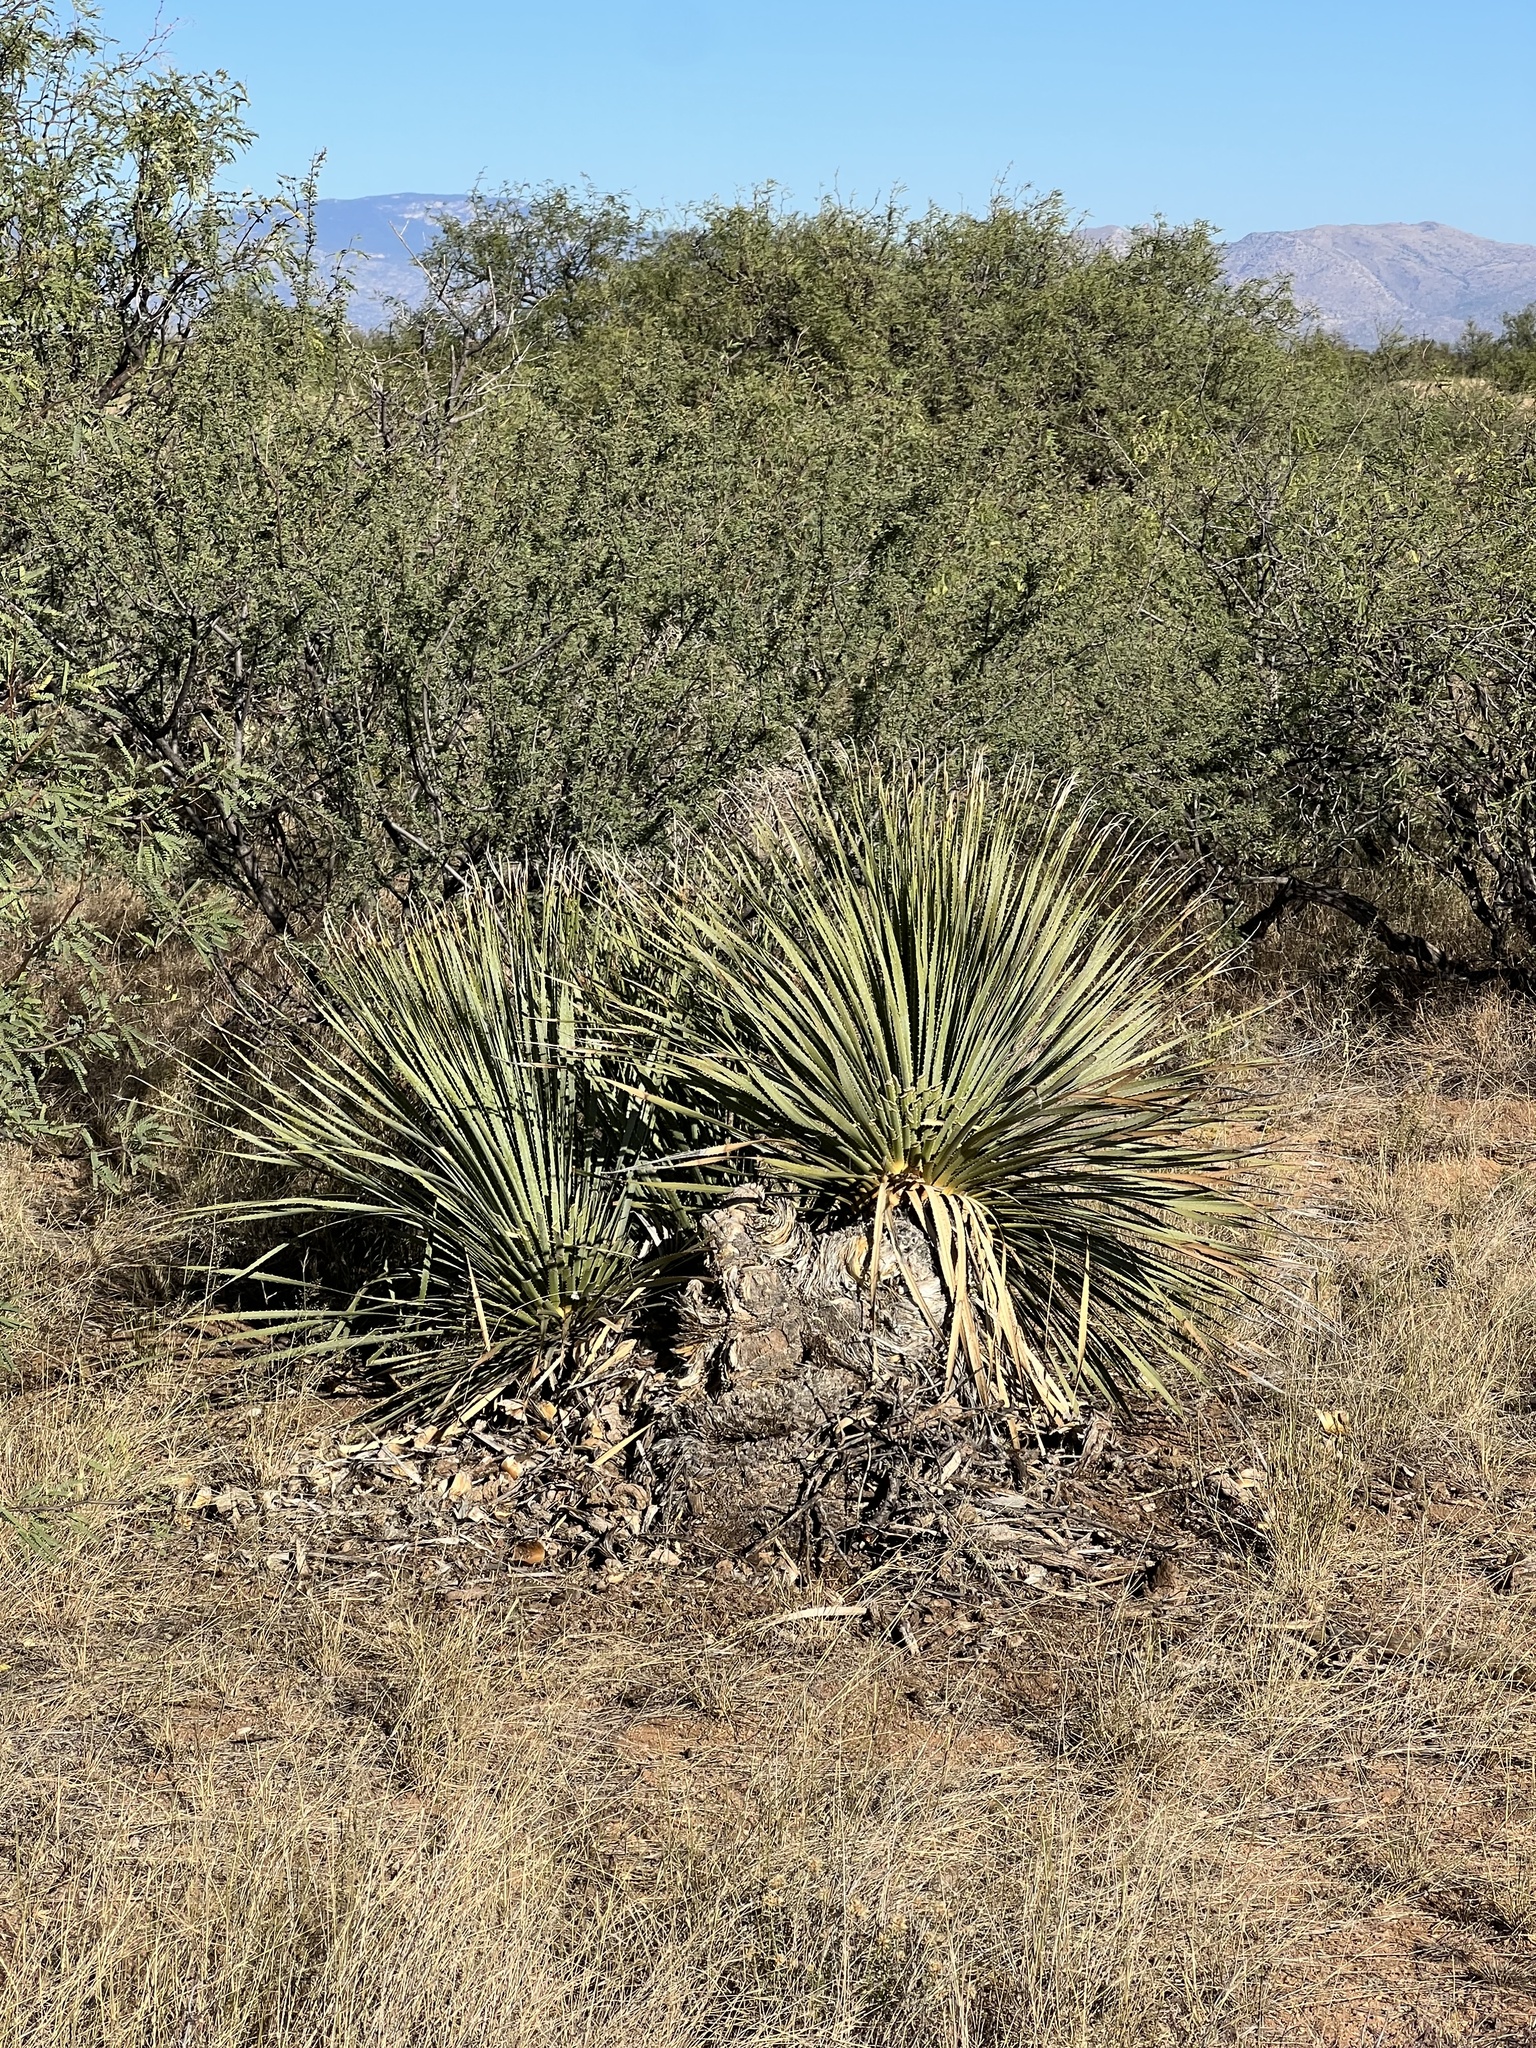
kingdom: Plantae
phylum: Tracheophyta
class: Liliopsida
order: Asparagales
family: Asparagaceae
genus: Dasylirion
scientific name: Dasylirion wheeleri
